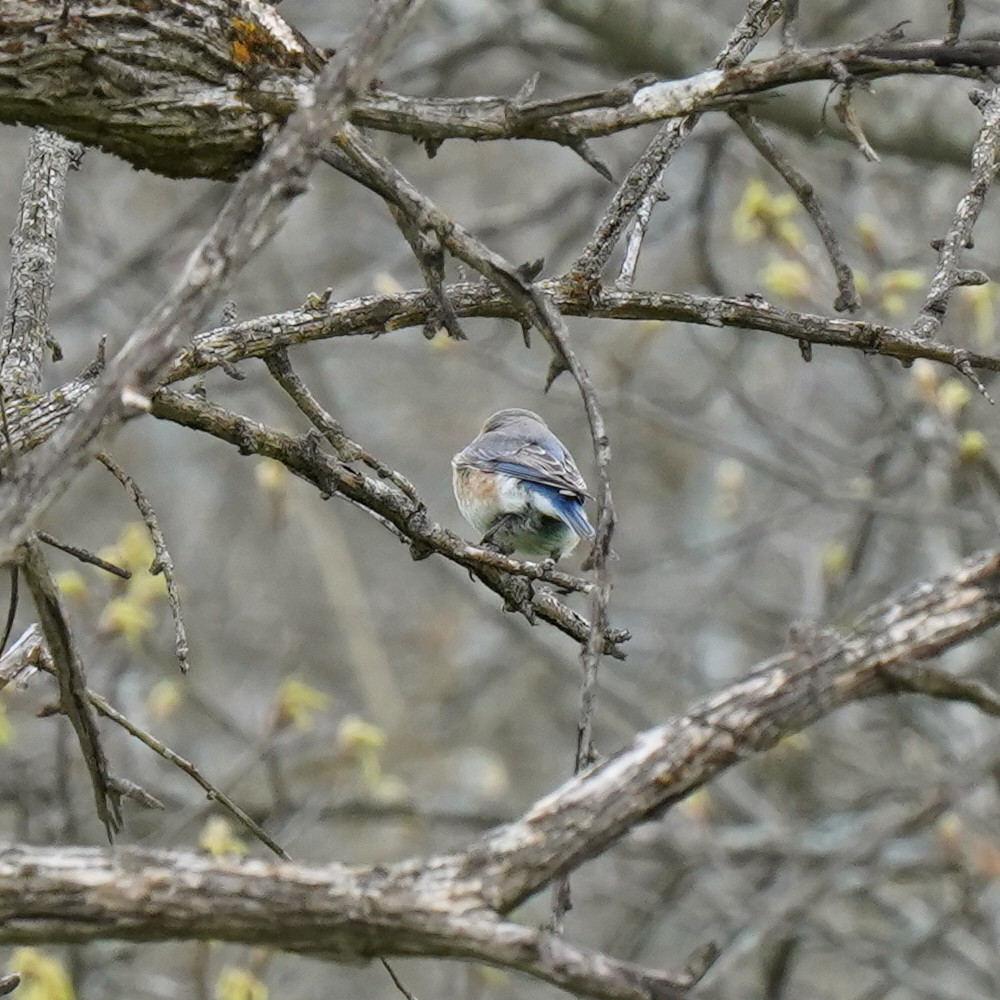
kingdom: Animalia
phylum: Chordata
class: Aves
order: Passeriformes
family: Turdidae
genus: Sialia
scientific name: Sialia sialis
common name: Eastern bluebird
